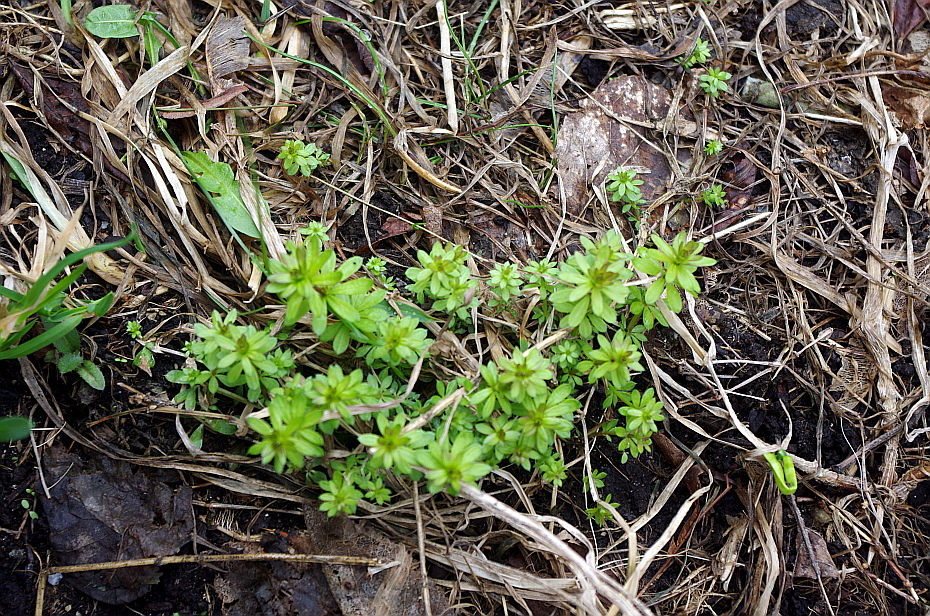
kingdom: Plantae
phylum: Tracheophyta
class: Magnoliopsida
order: Gentianales
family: Rubiaceae
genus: Galium
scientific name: Galium mollugo
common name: Hedge bedstraw
